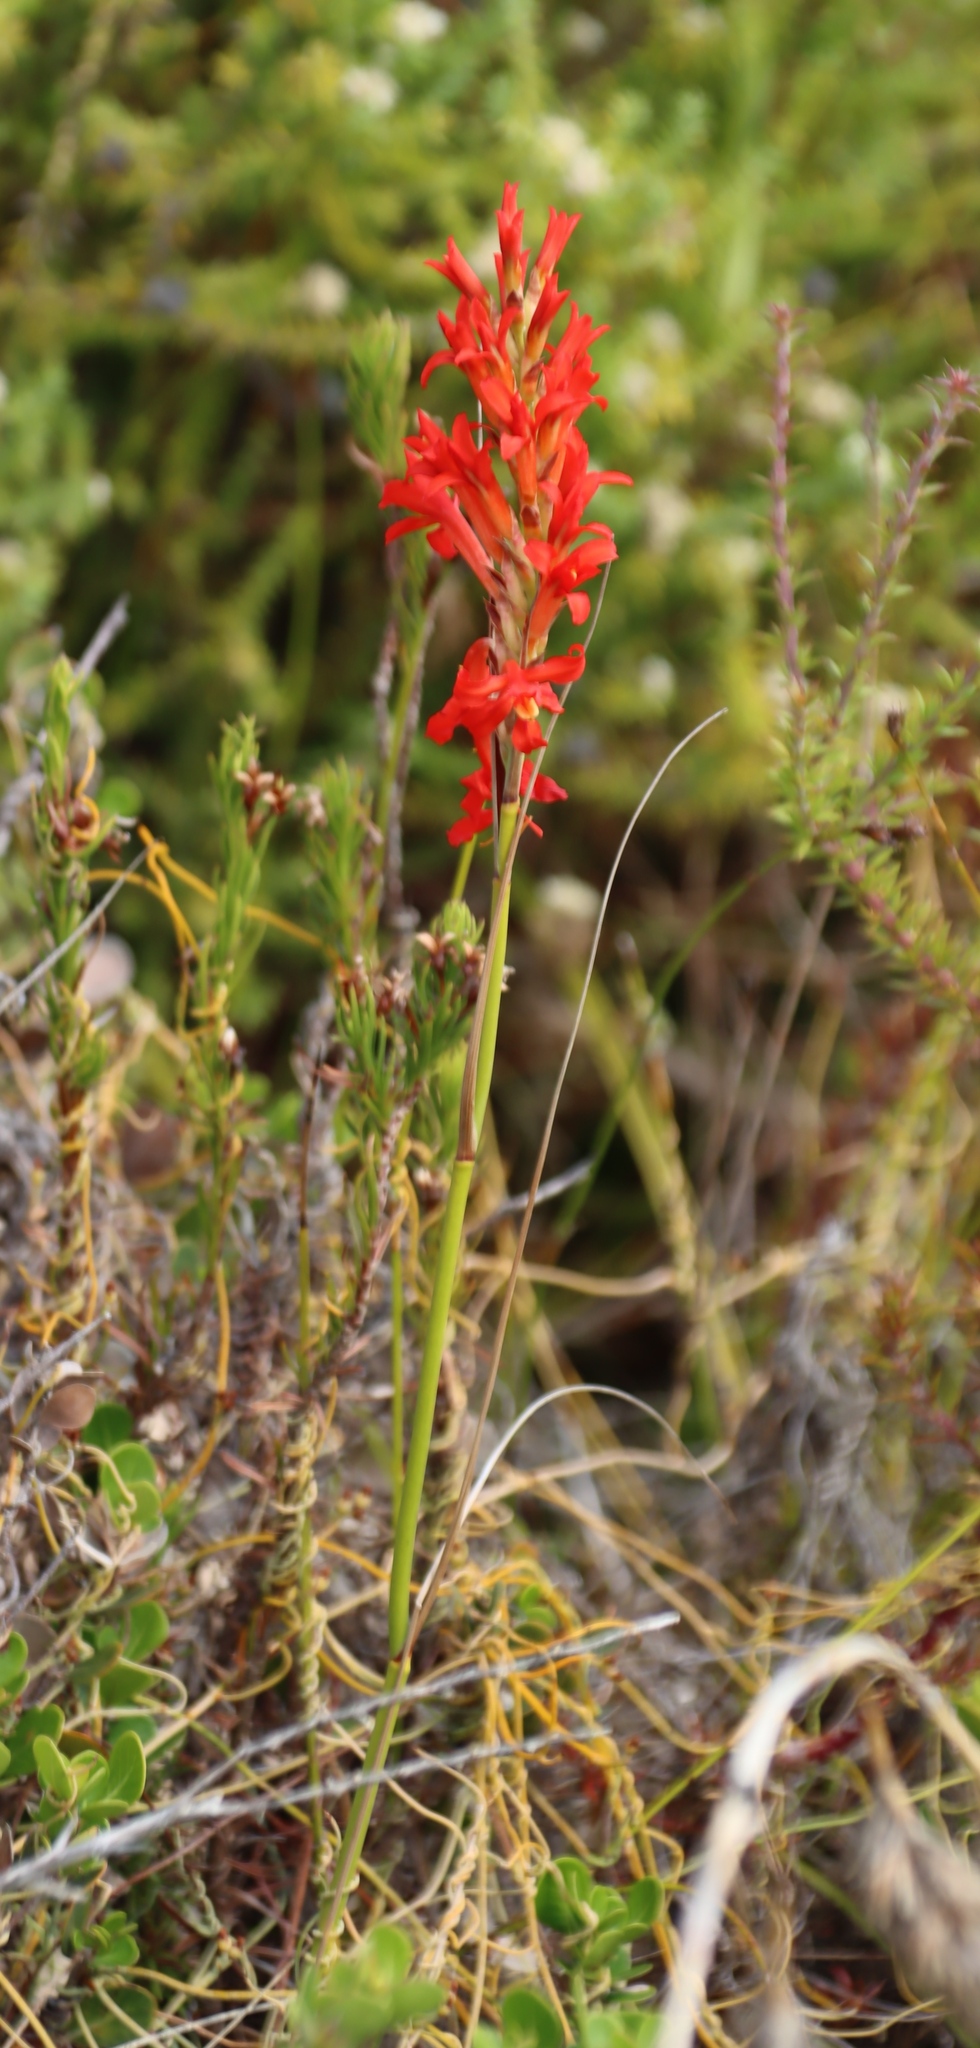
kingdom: Plantae
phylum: Tracheophyta
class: Liliopsida
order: Asparagales
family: Iridaceae
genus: Tritoniopsis
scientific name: Tritoniopsis triticea
